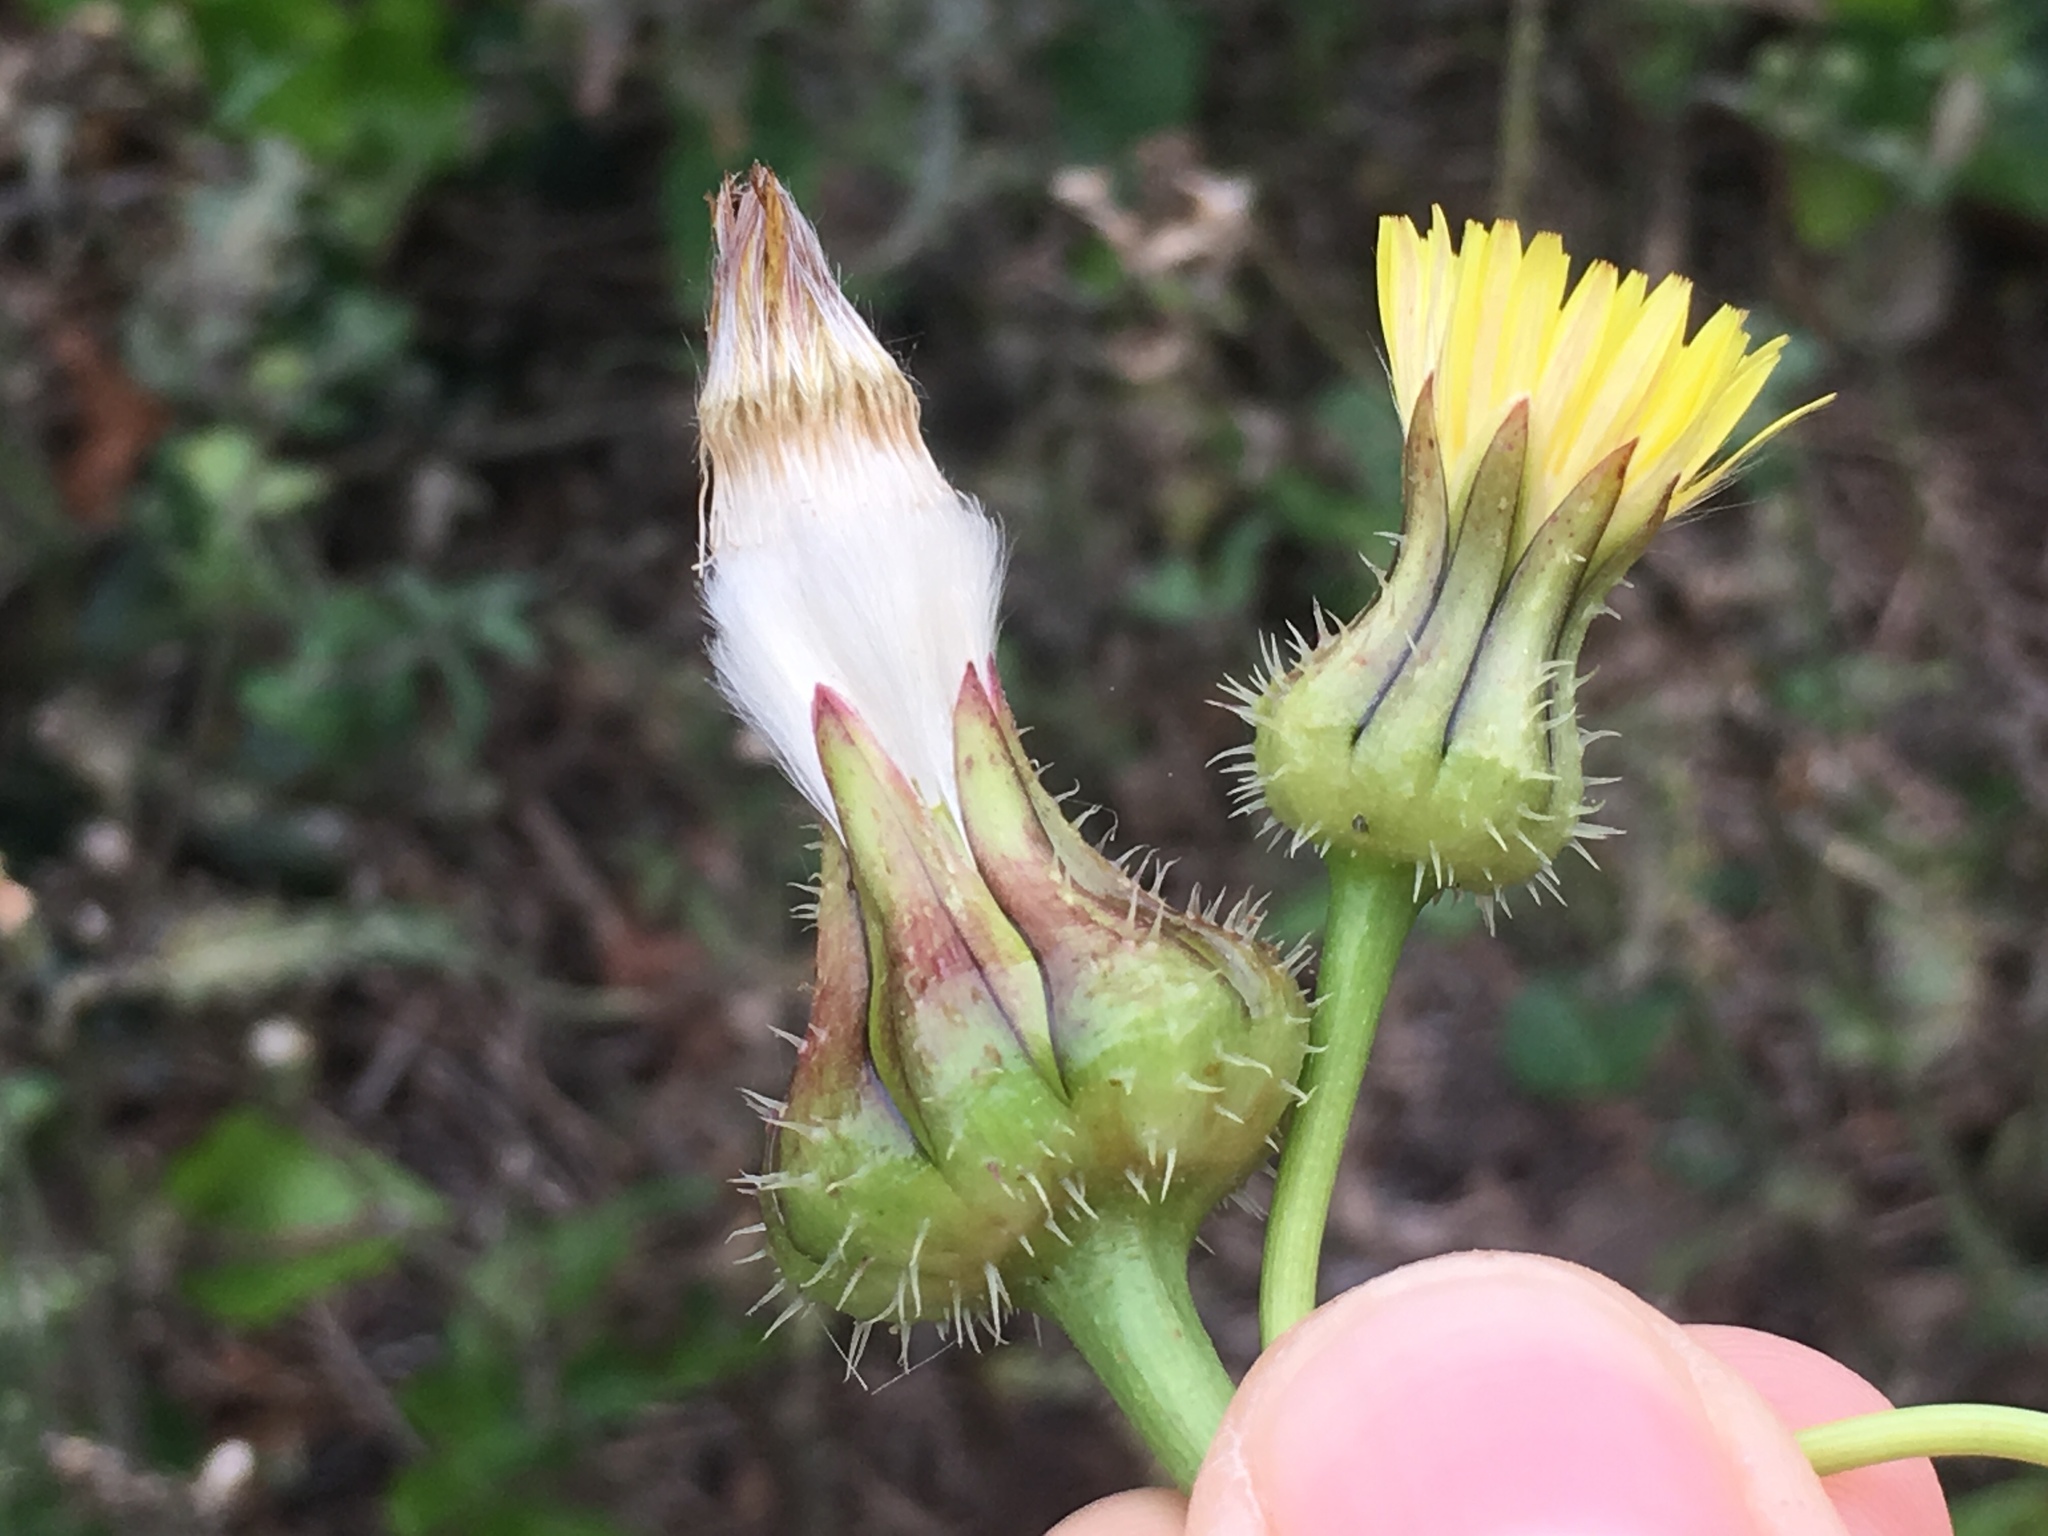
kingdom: Plantae
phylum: Tracheophyta
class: Magnoliopsida
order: Asterales
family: Asteraceae
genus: Urospermum
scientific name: Urospermum picroides
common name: False hawkbit
